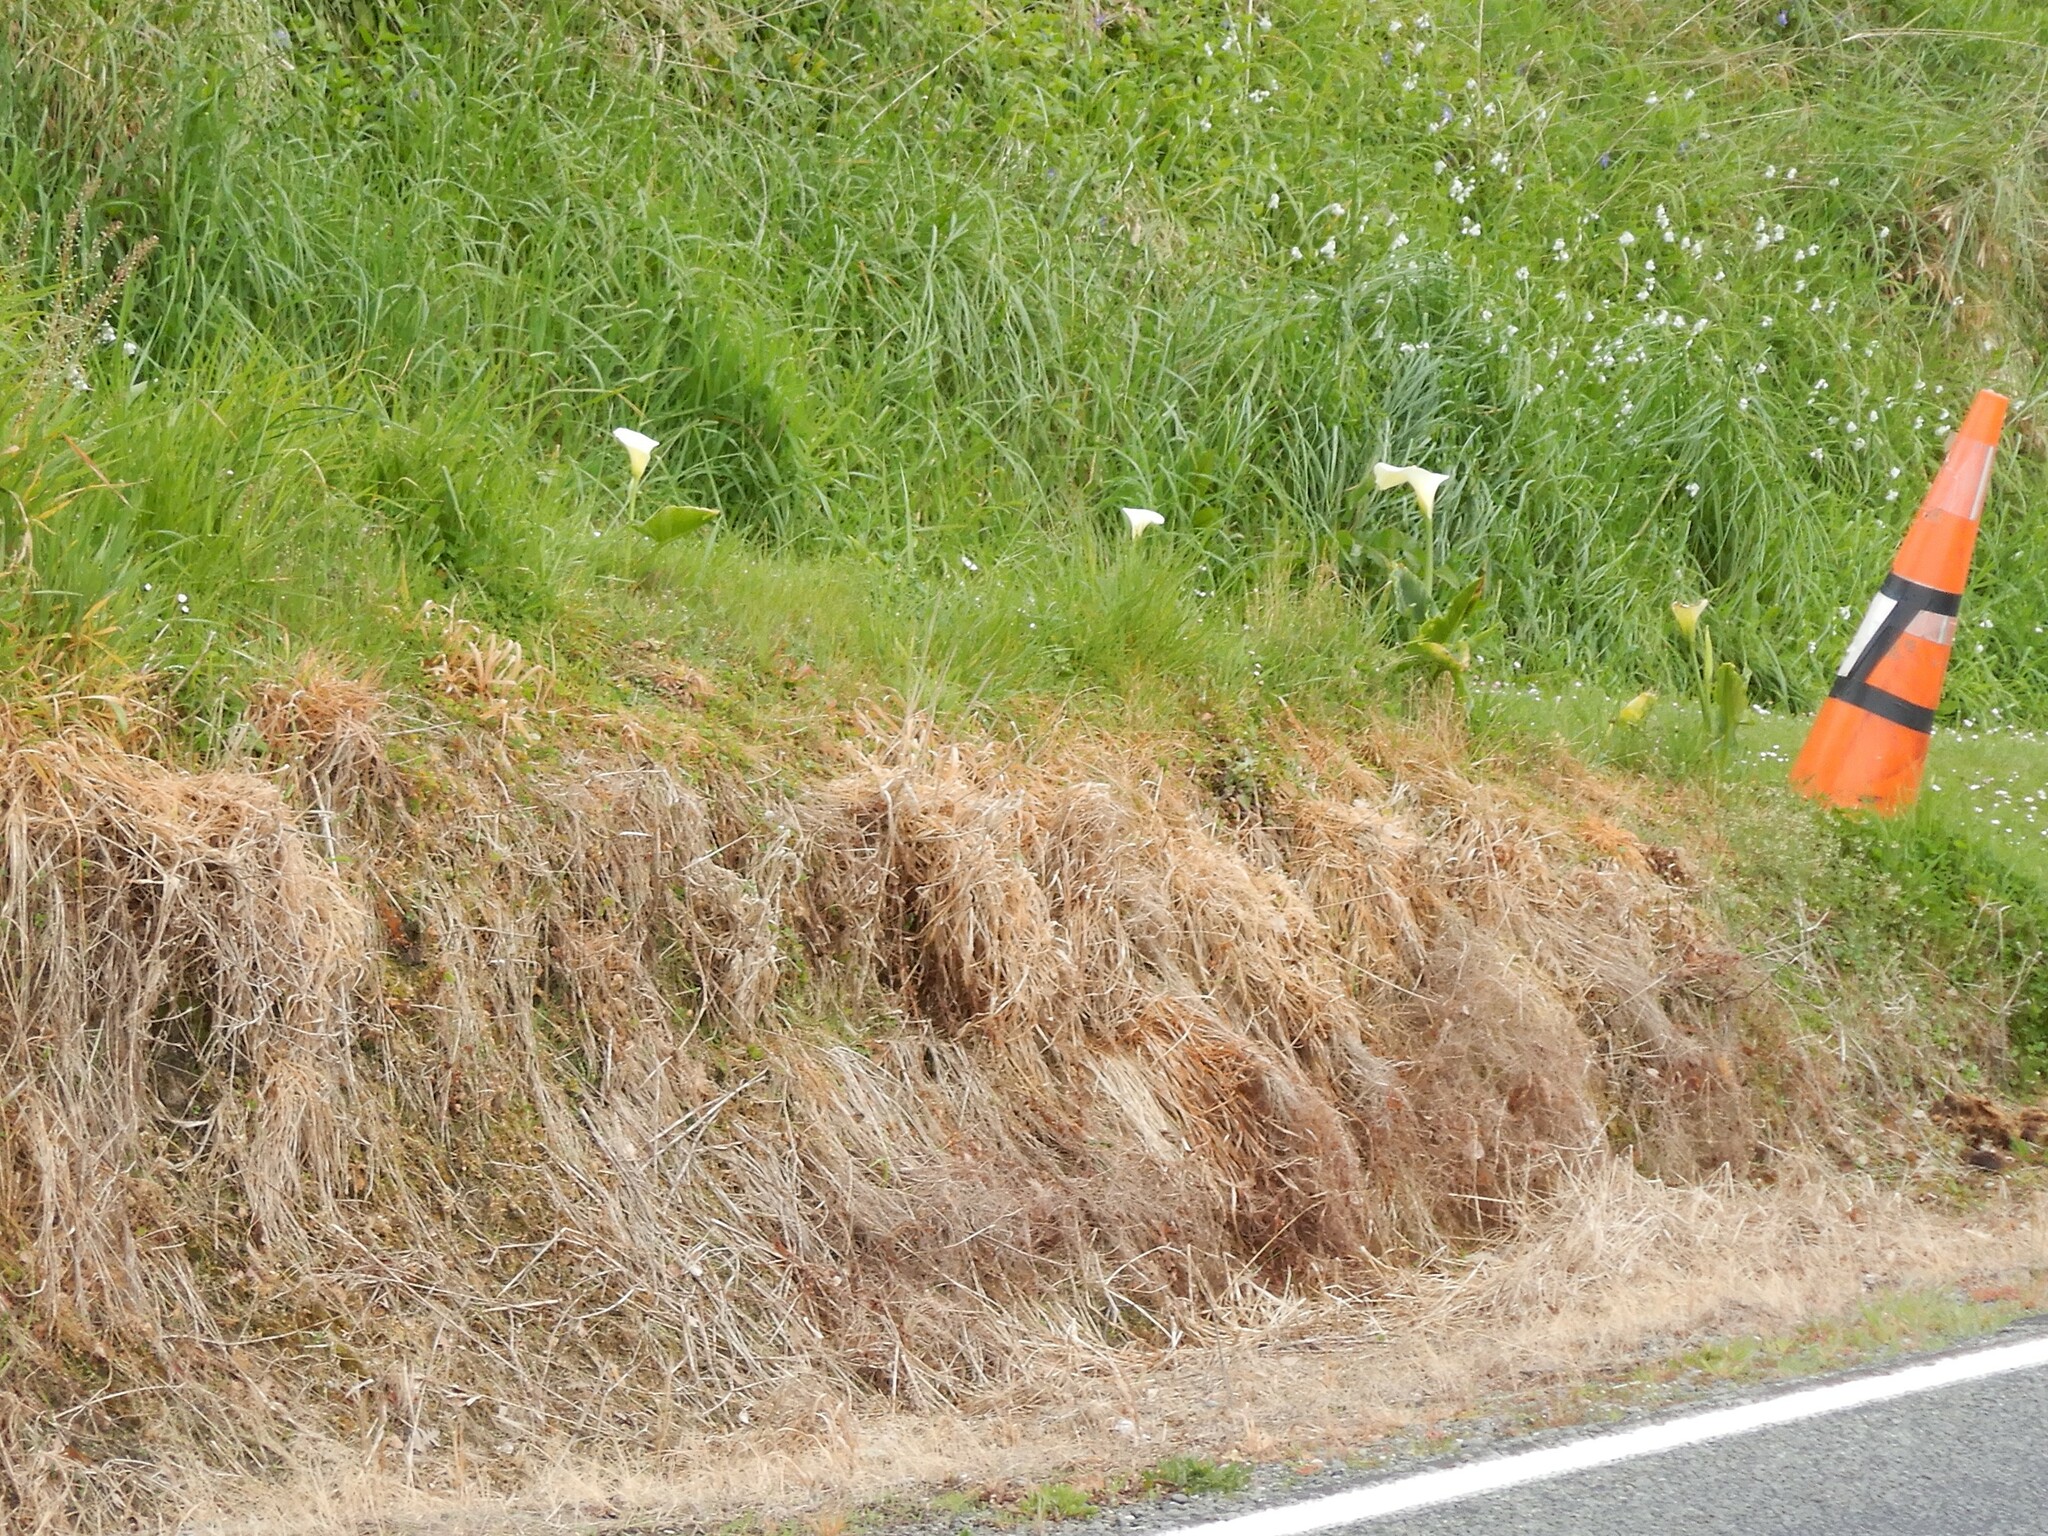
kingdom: Plantae
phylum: Tracheophyta
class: Liliopsida
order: Alismatales
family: Araceae
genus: Zantedeschia
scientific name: Zantedeschia aethiopica
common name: Altar-lily
